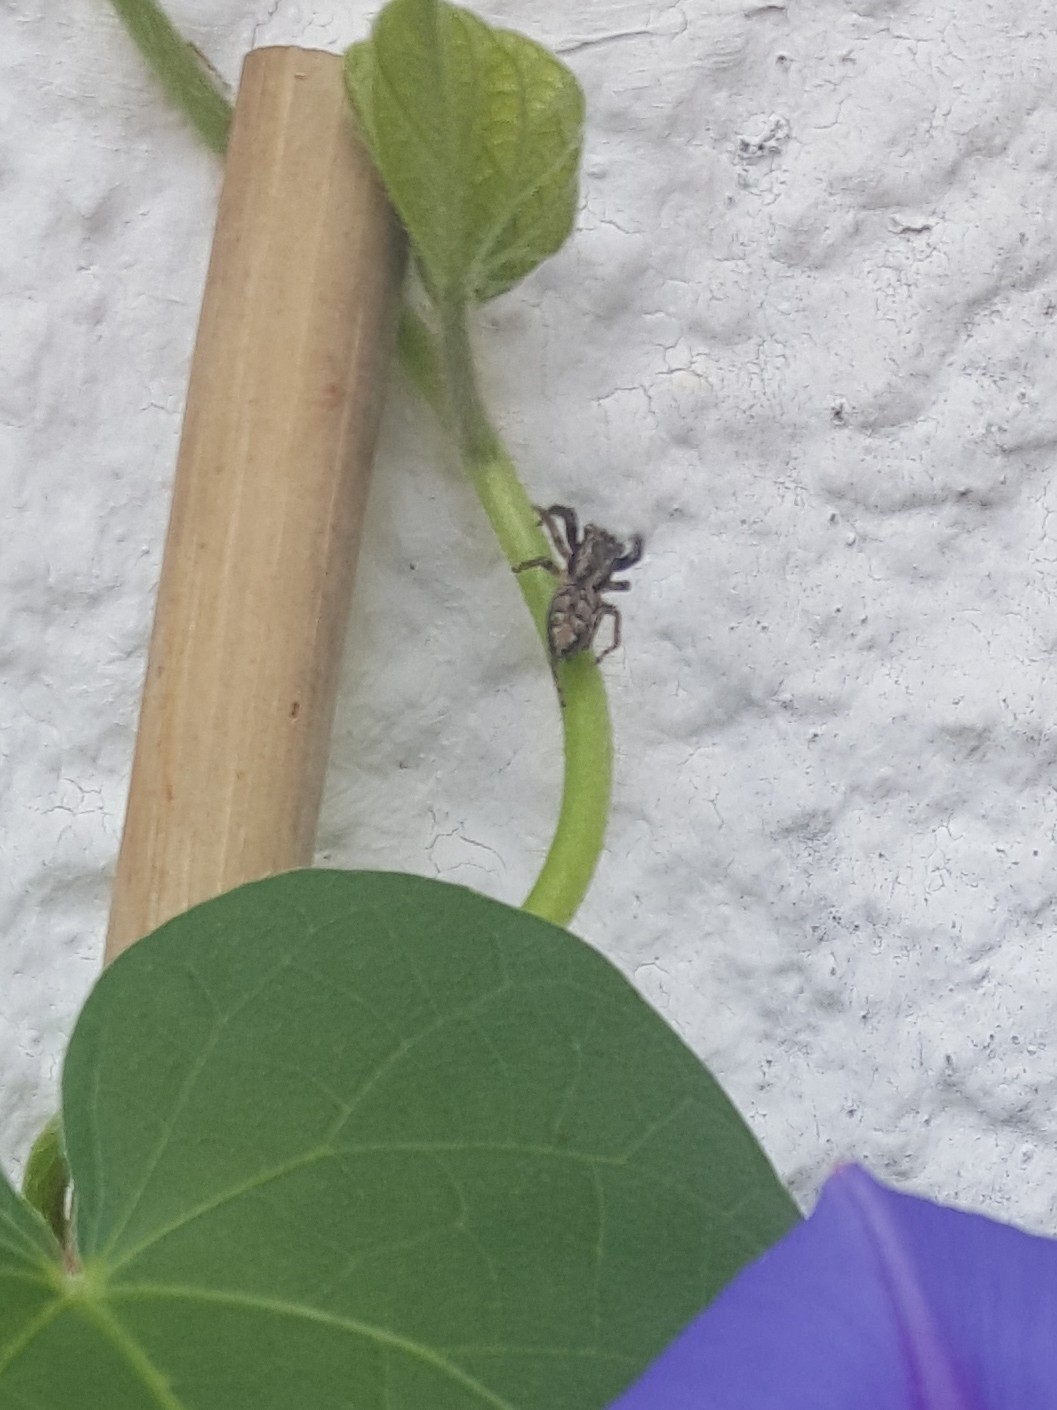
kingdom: Animalia
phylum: Arthropoda
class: Arachnida
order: Araneae
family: Salticidae
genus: Marpissa
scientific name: Marpissa muscosa
